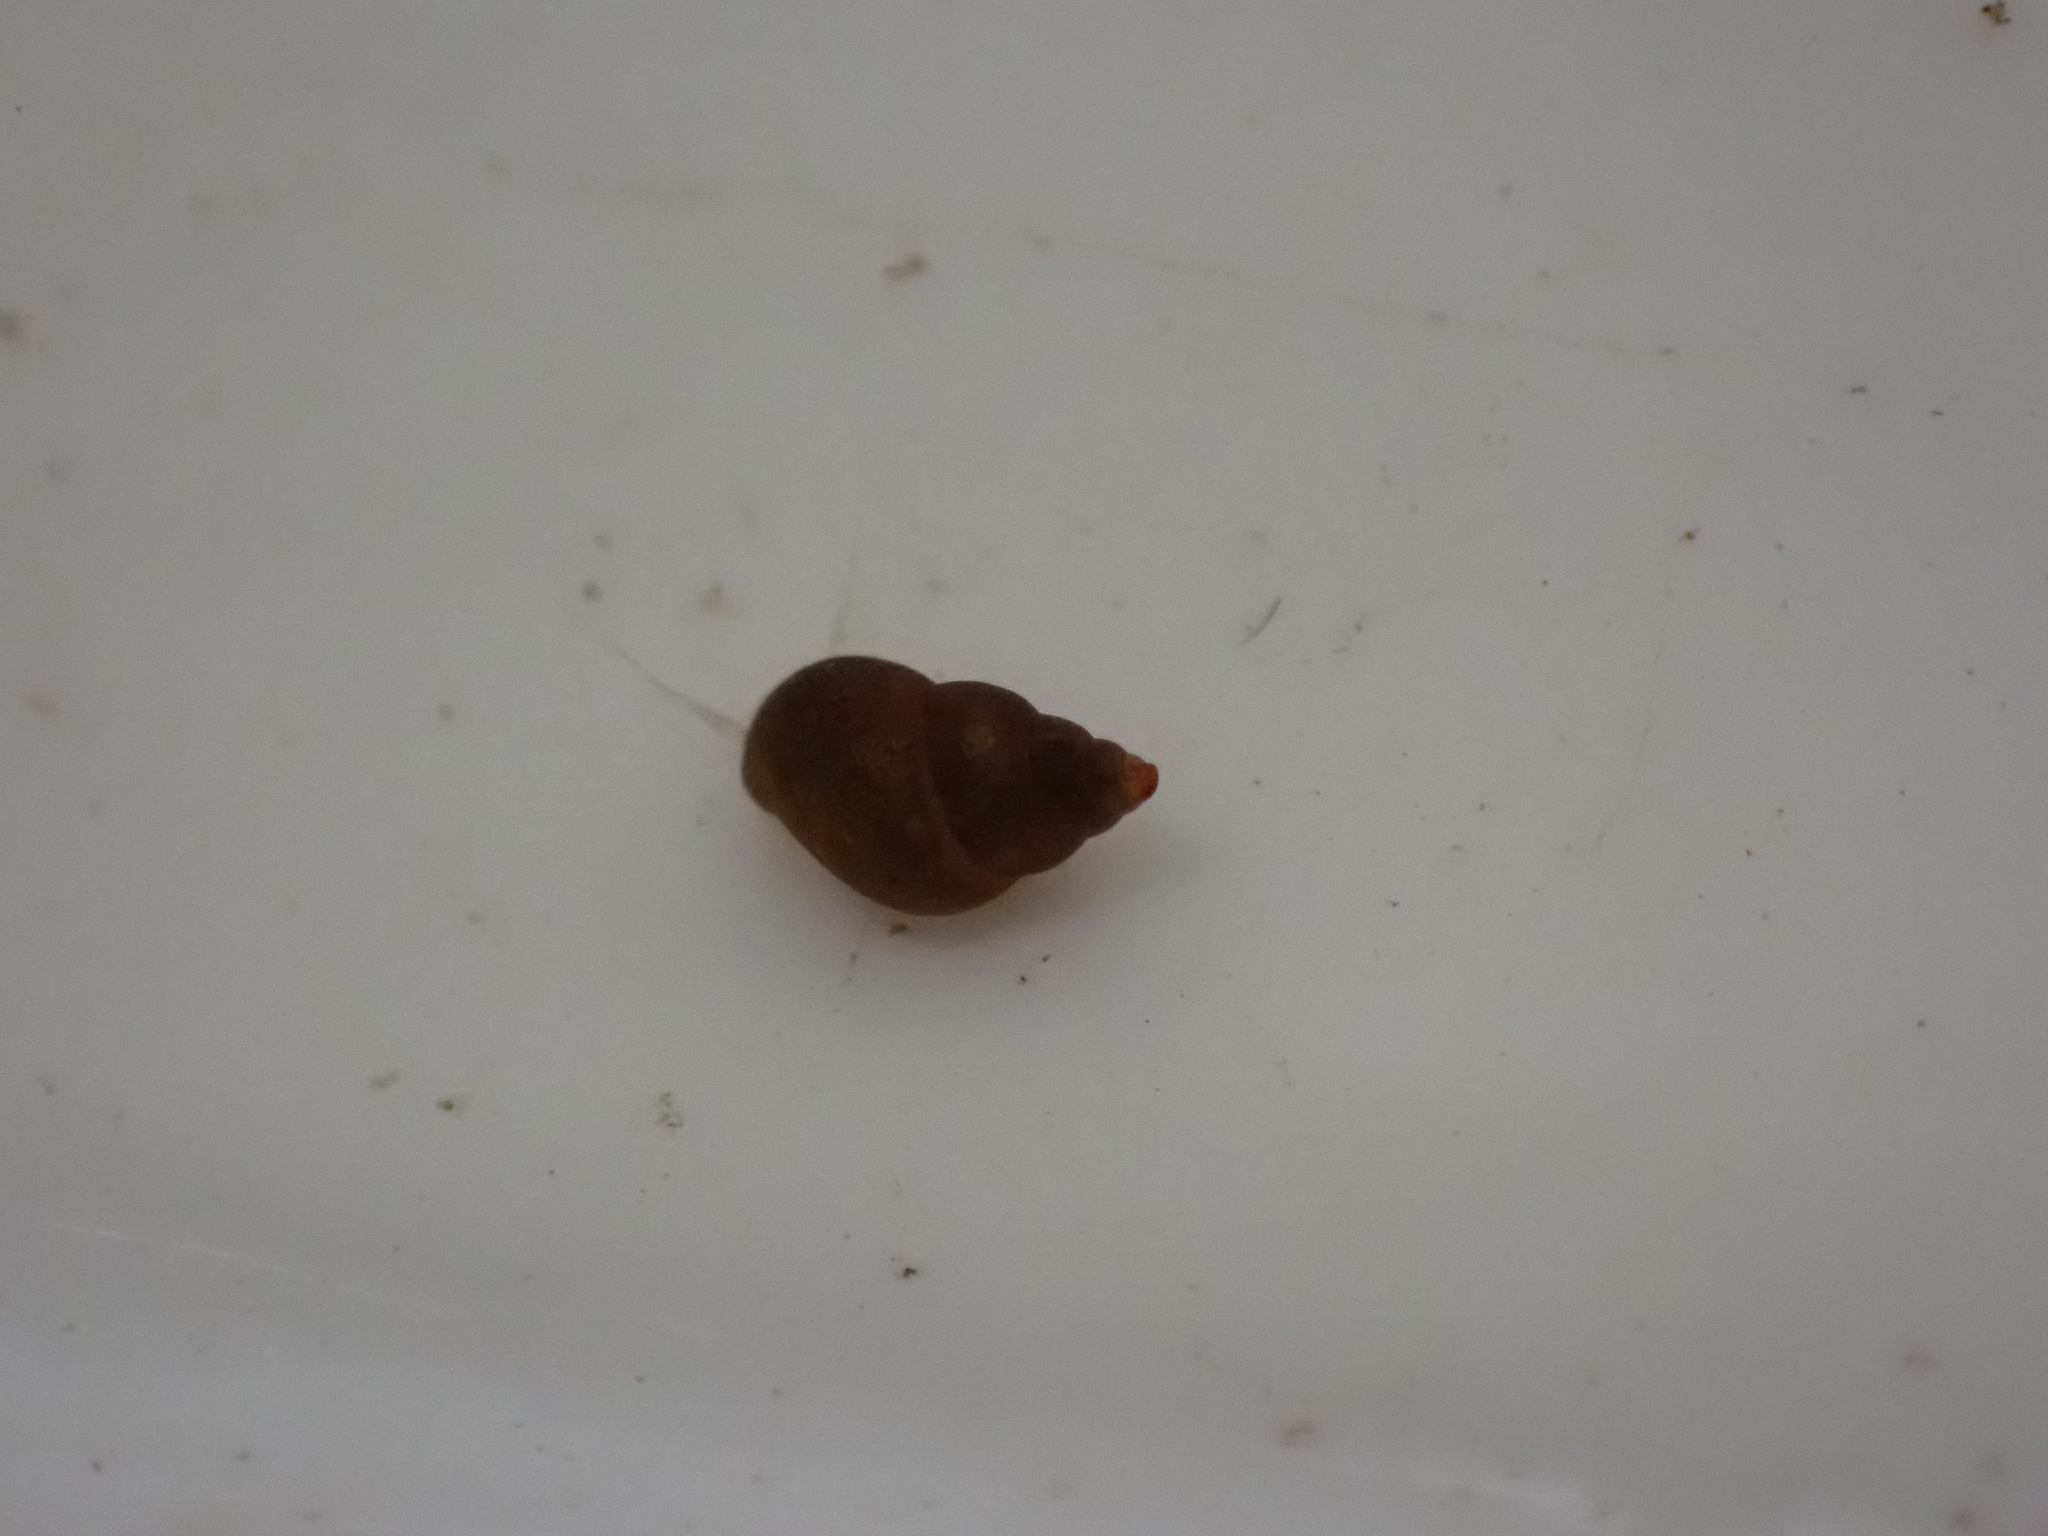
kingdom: Animalia
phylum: Mollusca
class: Gastropoda
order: Littorinimorpha
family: Tateidae
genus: Potamopyrgus
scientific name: Potamopyrgus antipodarum
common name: Jenkins' spire snail
